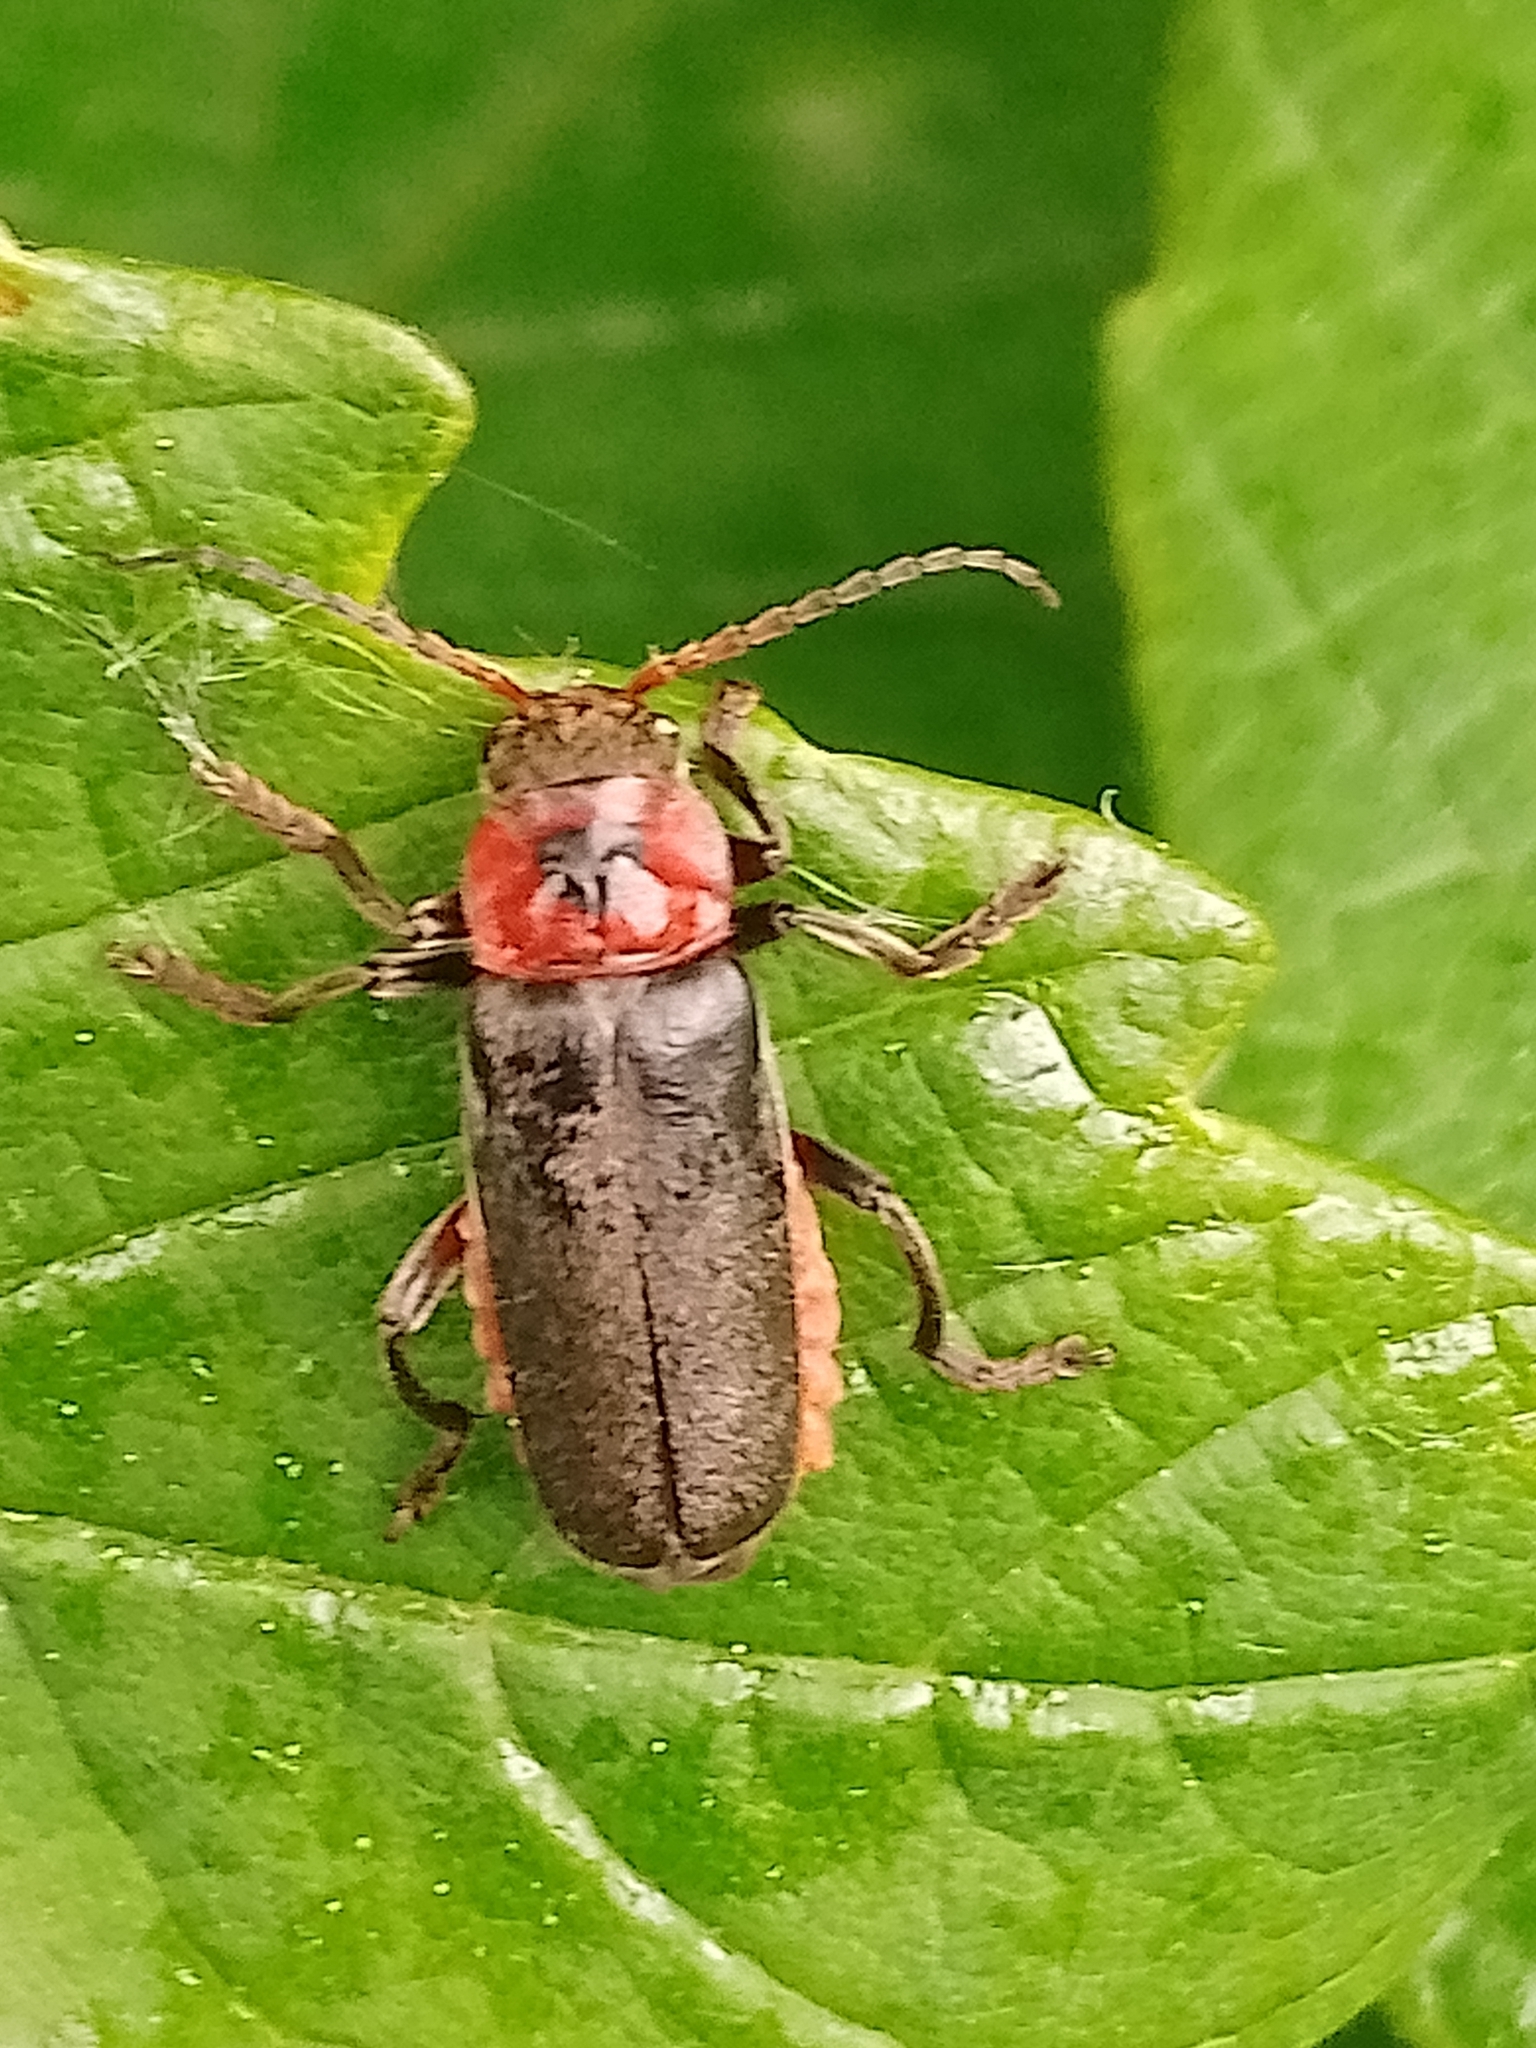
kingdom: Animalia
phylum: Arthropoda
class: Insecta
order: Coleoptera
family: Cantharidae
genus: Cantharis
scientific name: Cantharis rustica
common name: Soldier beetle
